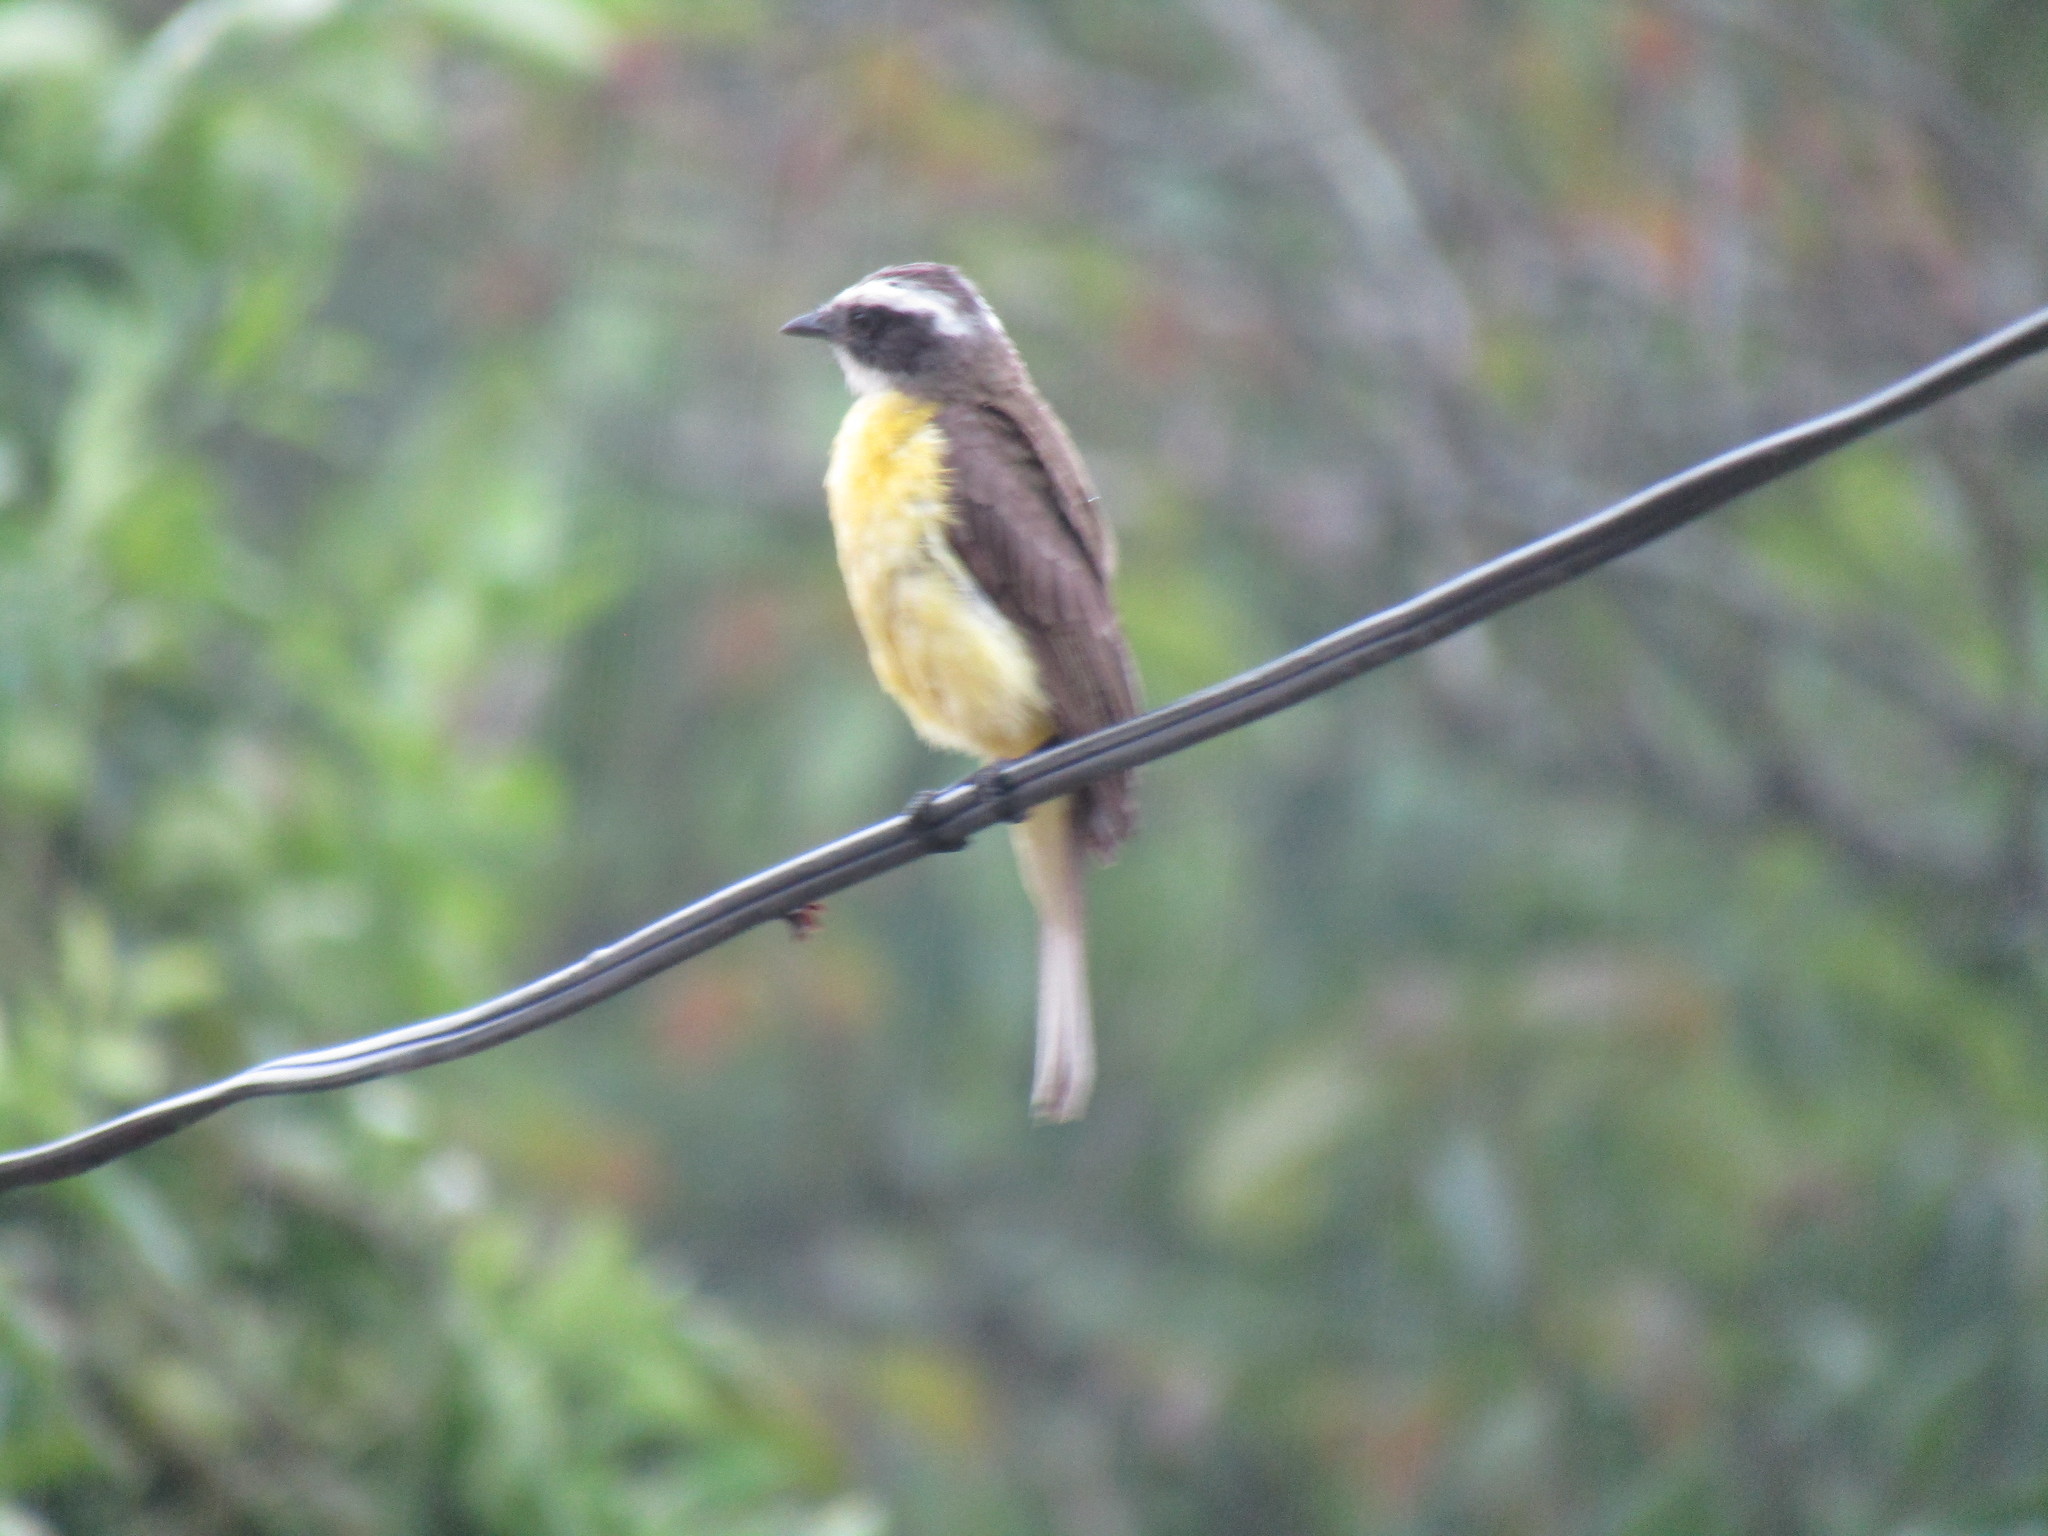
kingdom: Animalia
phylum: Chordata
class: Aves
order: Passeriformes
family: Tyrannidae
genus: Myiozetetes
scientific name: Myiozetetes similis
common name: Social flycatcher
